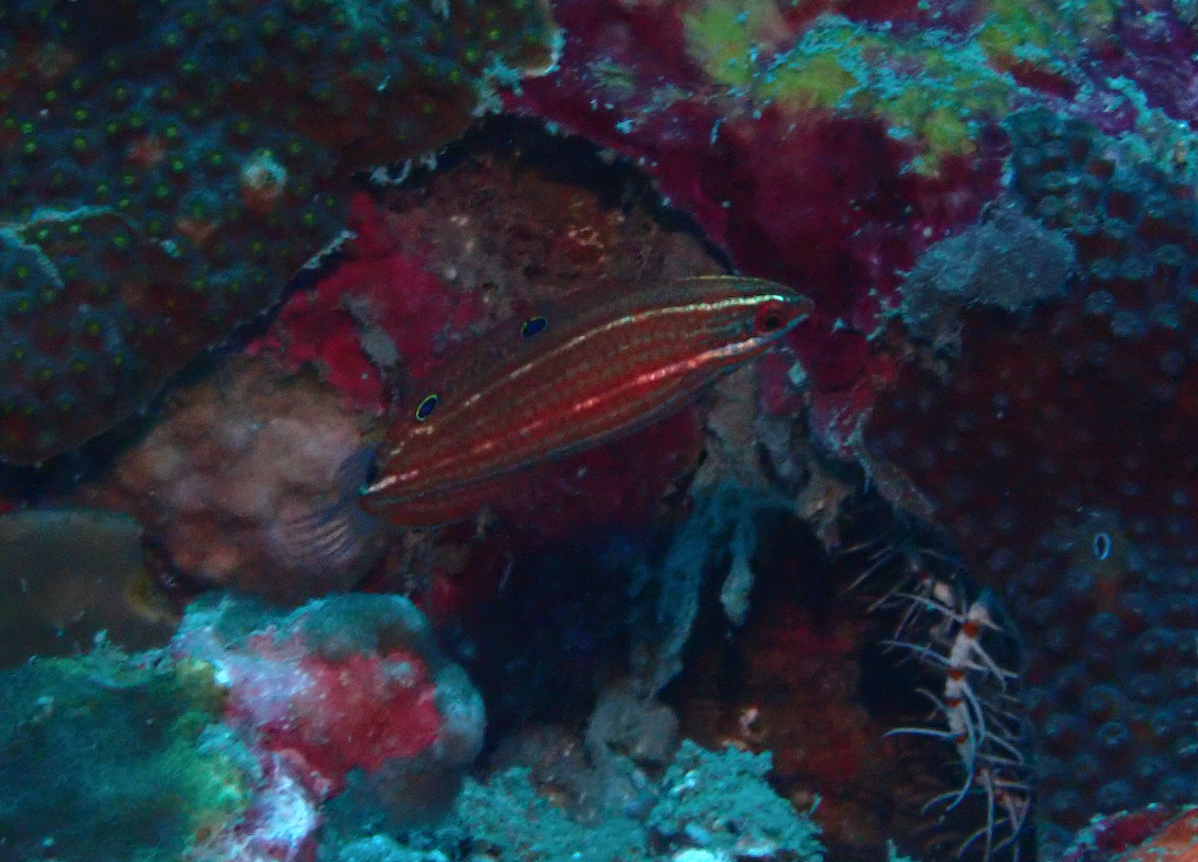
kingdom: Animalia
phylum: Chordata
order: Perciformes
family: Labridae
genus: Halichoeres
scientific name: Halichoeres biocellatus
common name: False-eyed wrasse
